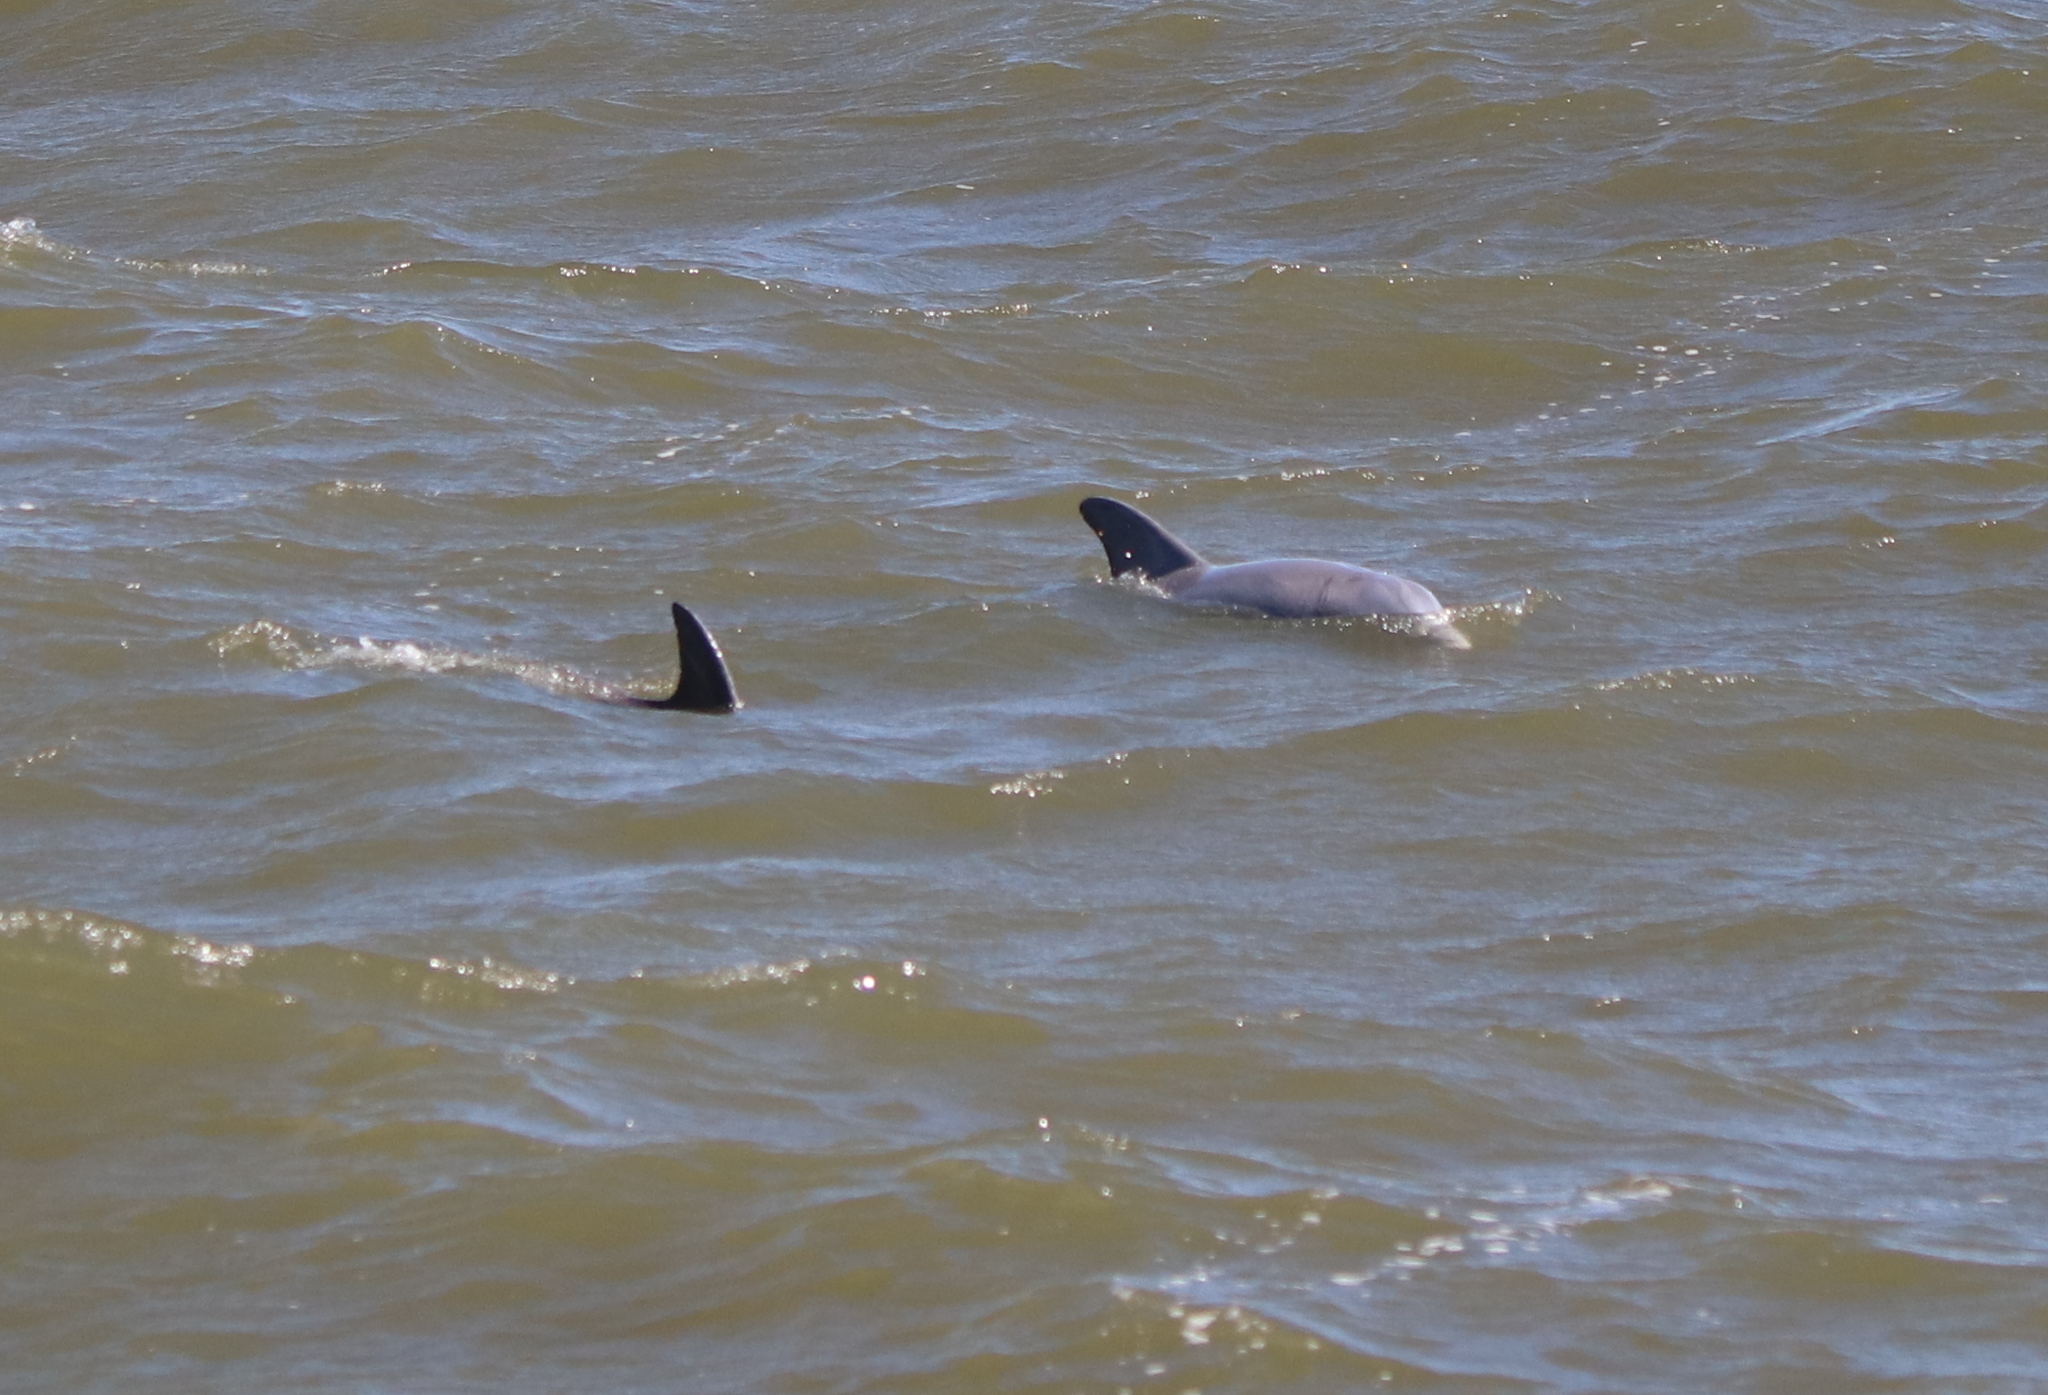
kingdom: Animalia
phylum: Chordata
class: Mammalia
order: Cetacea
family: Delphinidae
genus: Tursiops
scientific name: Tursiops truncatus
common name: Bottlenose dolphin
